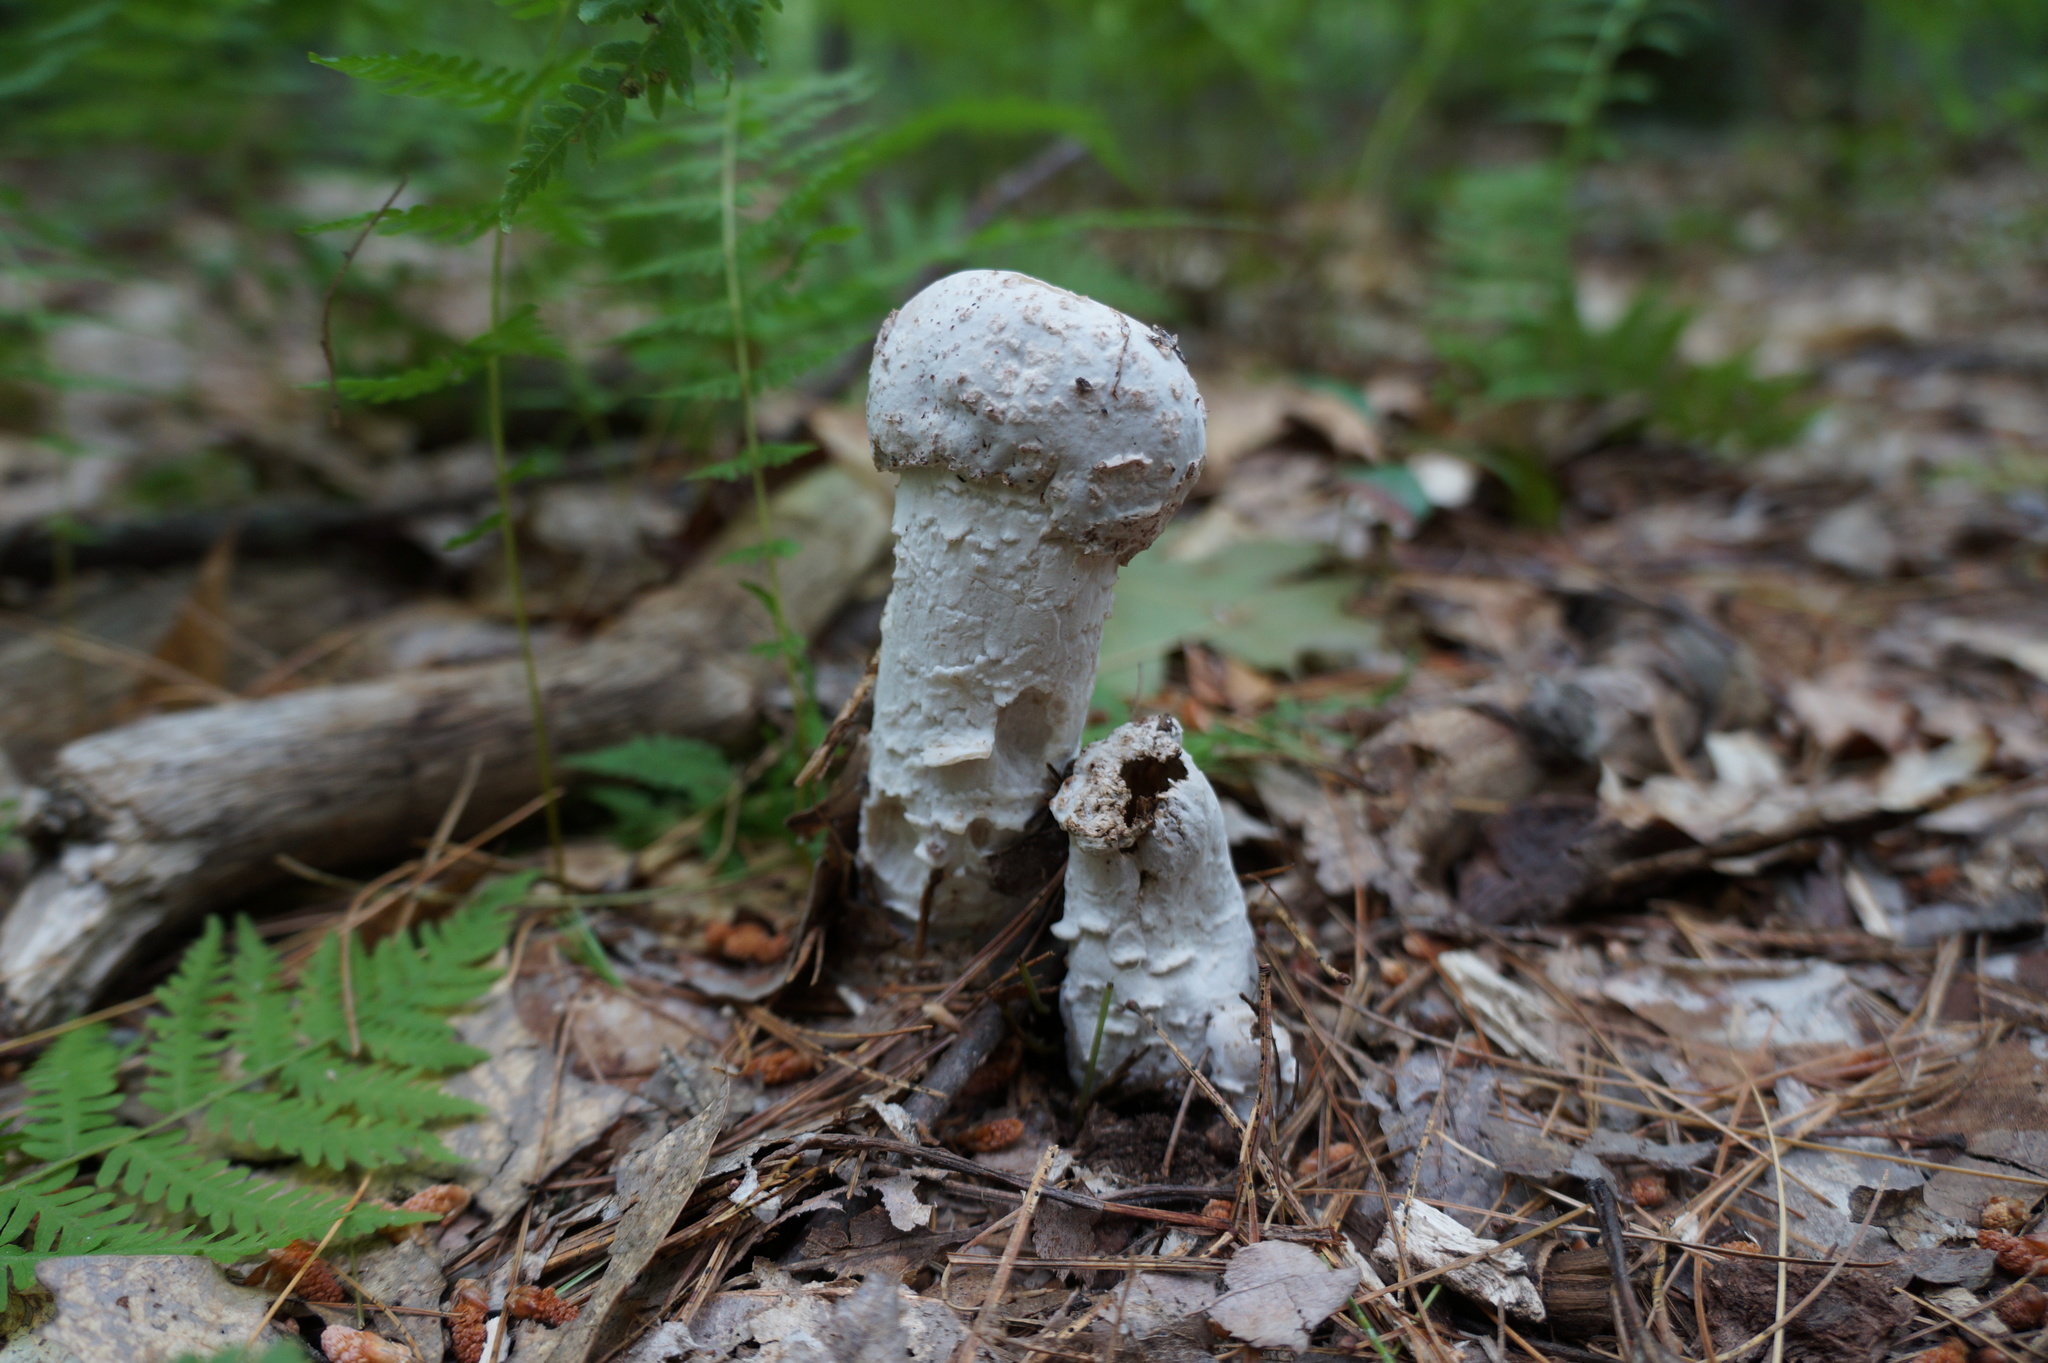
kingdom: Fungi
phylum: Ascomycota
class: Sordariomycetes
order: Hypocreales
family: Hypocreaceae
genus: Hypomyces
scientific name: Hypomyces hyalinus
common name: Amanita mold
